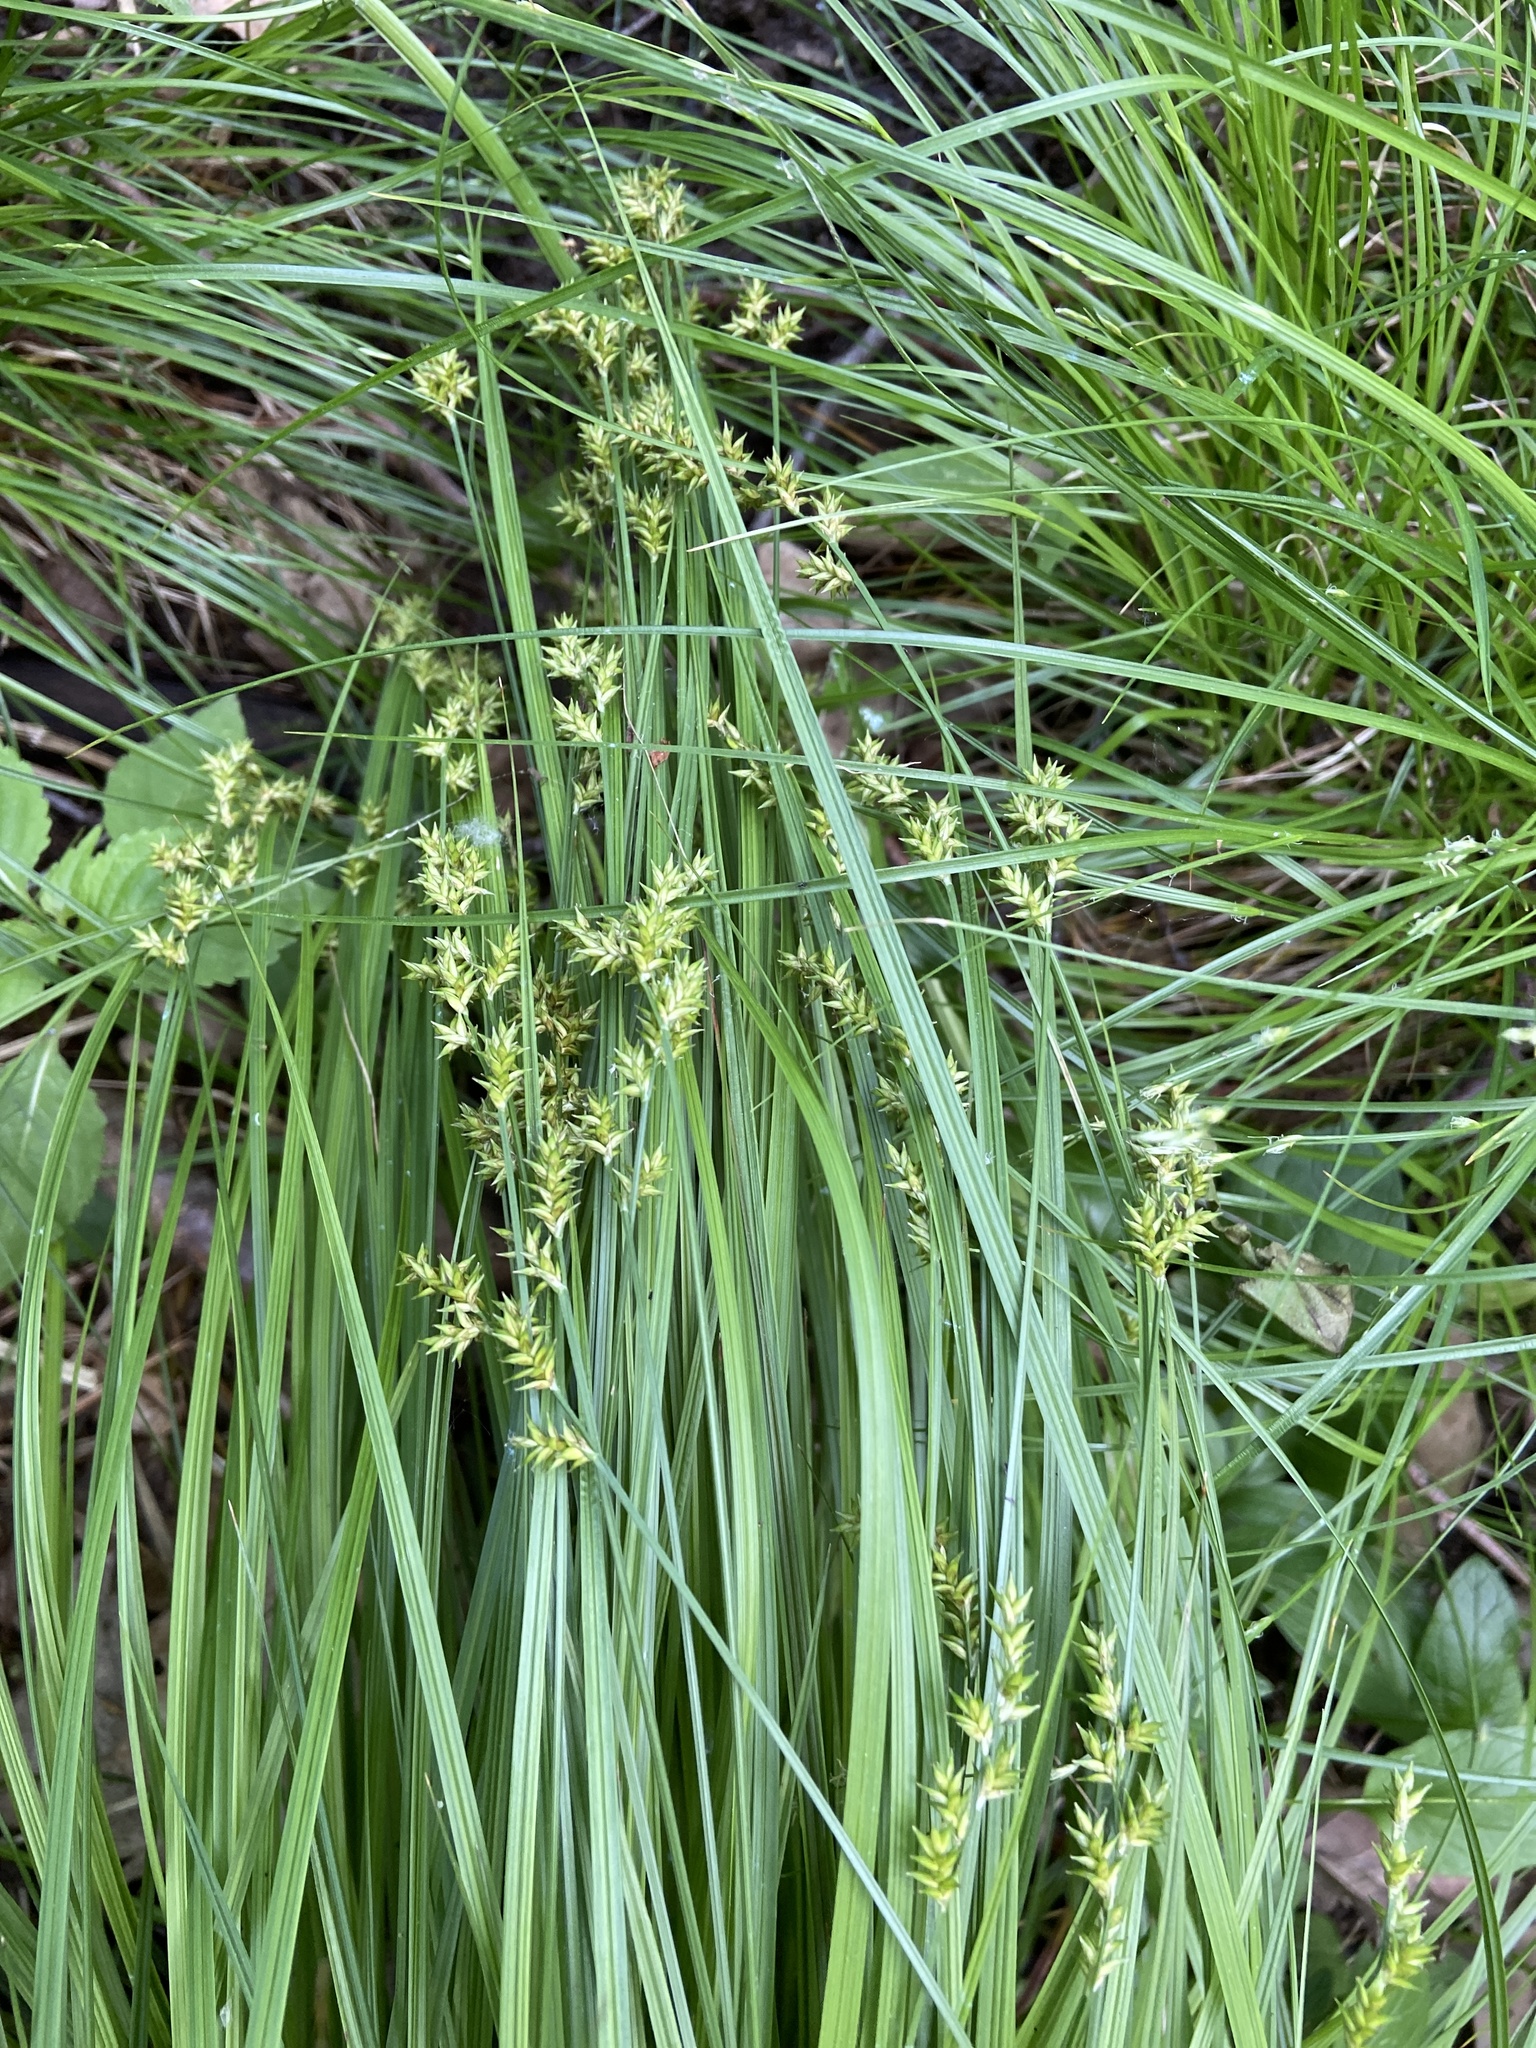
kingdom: Plantae
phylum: Tracheophyta
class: Liliopsida
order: Poales
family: Cyperaceae
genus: Carex
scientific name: Carex elongata
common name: Elongated sedge
